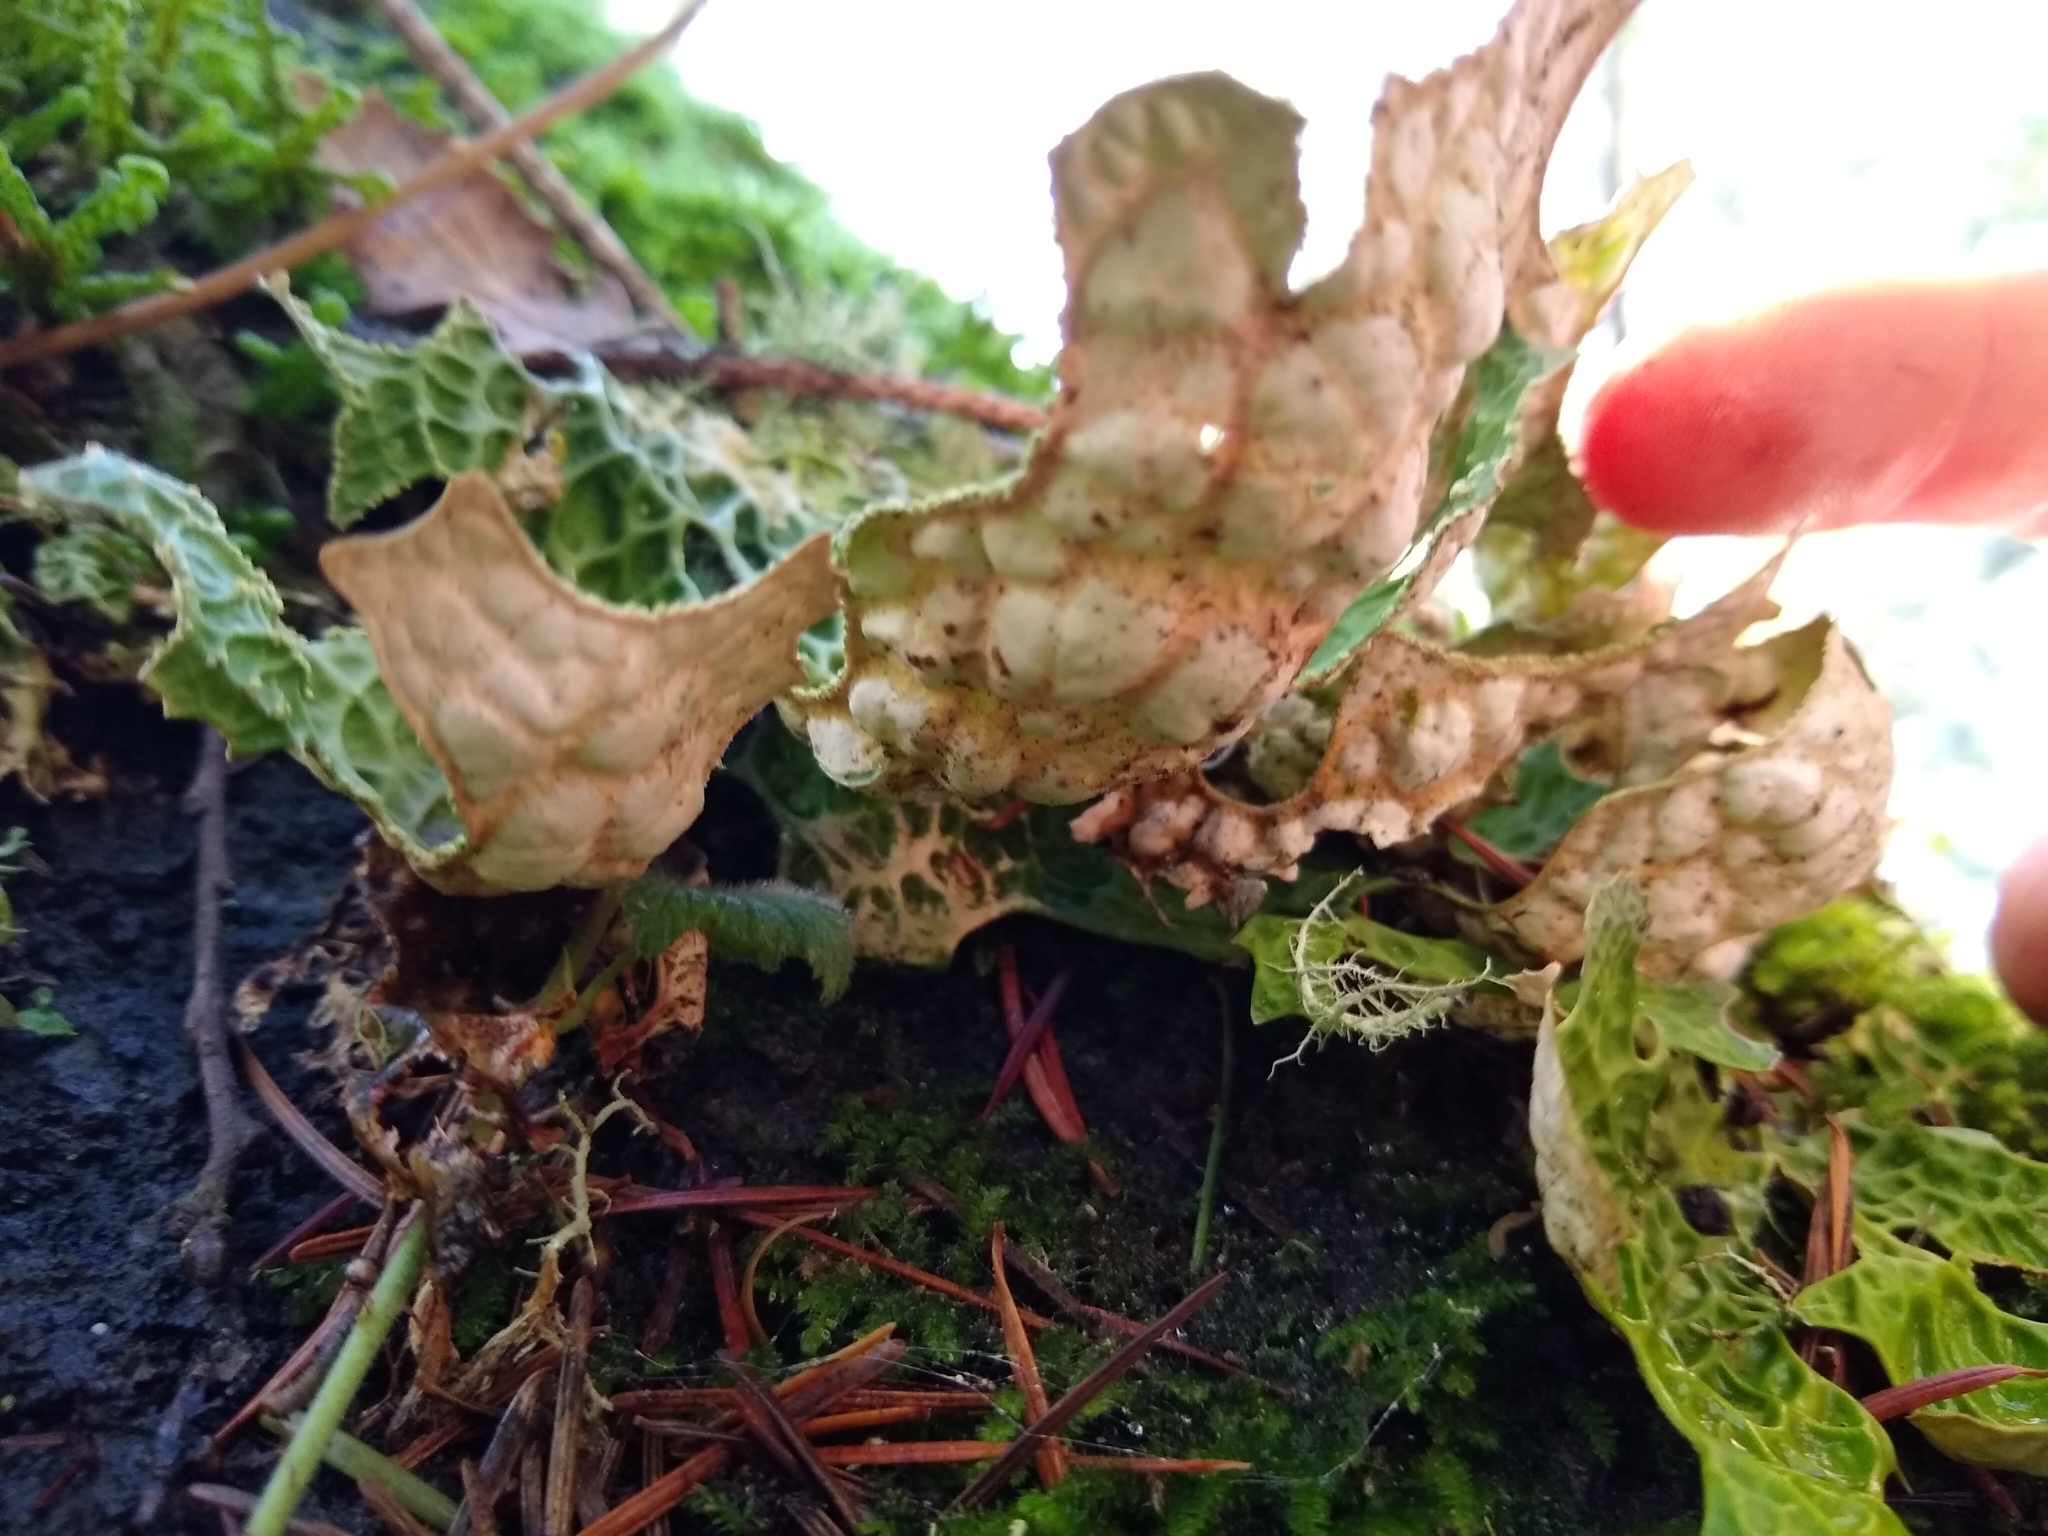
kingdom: Fungi
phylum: Ascomycota
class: Lecanoromycetes
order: Peltigerales
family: Lobariaceae
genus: Lobaria
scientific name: Lobaria pulmonaria
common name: Lungwort
